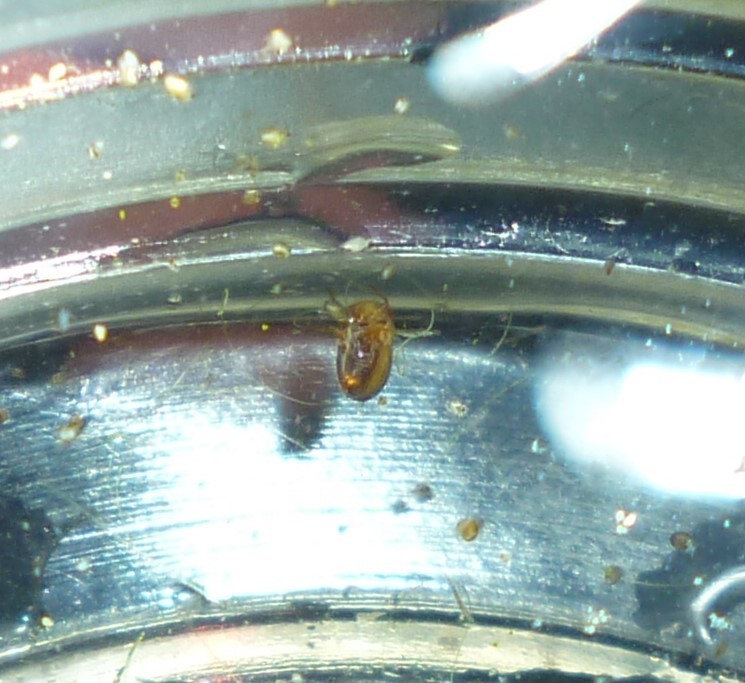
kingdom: Animalia
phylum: Arthropoda
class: Insecta
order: Hemiptera
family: Pleidae
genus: Neoplea
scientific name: Neoplea striola
